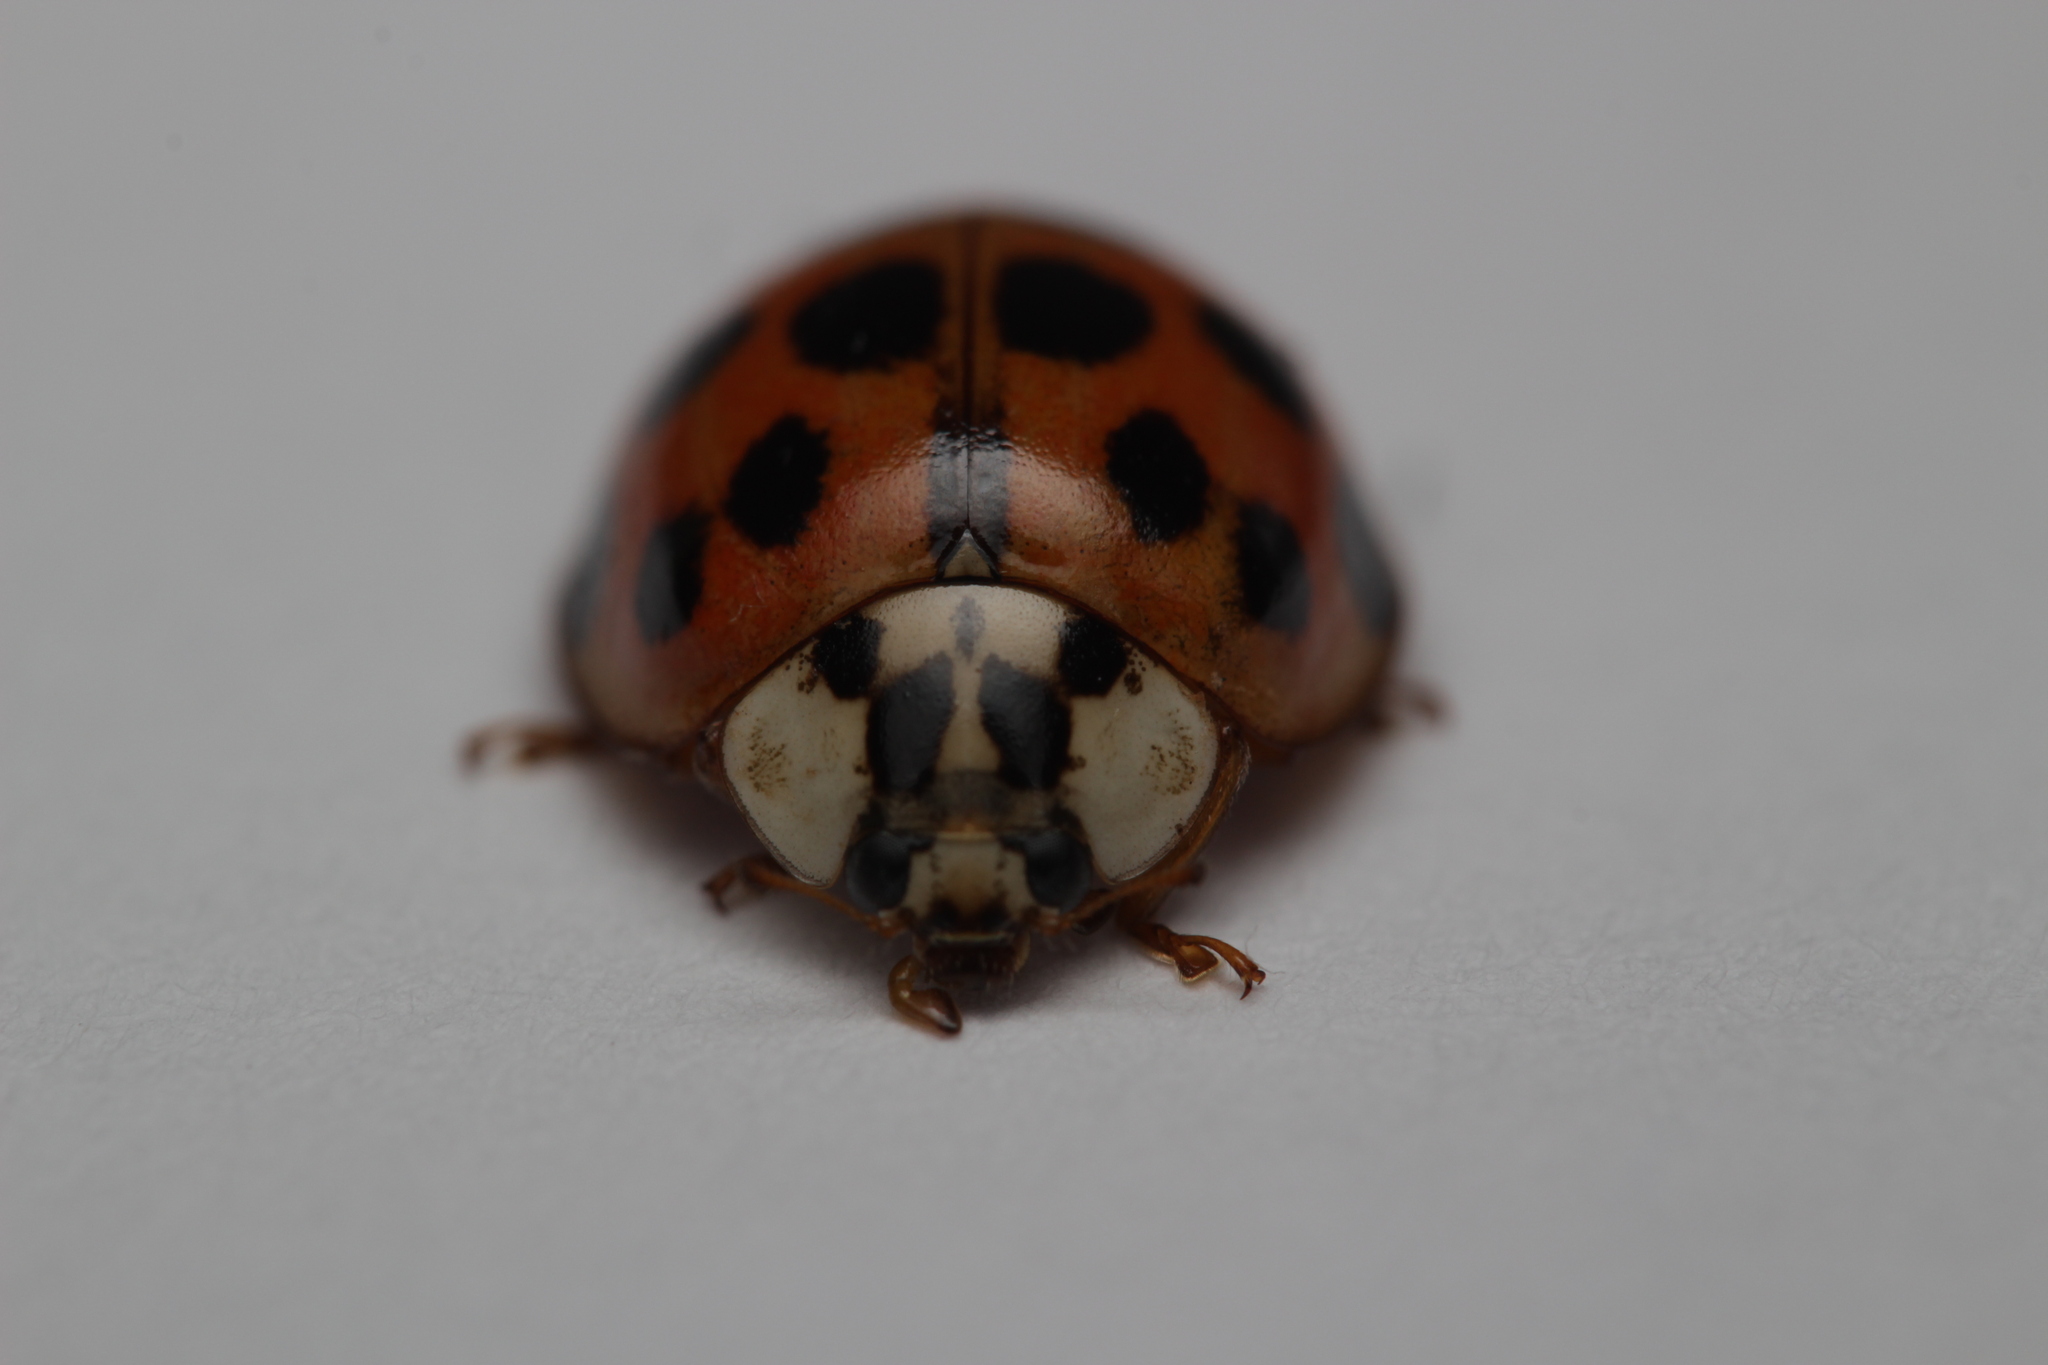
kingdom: Animalia
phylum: Arthropoda
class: Insecta
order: Coleoptera
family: Coccinellidae
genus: Harmonia
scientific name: Harmonia axyridis
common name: Harlequin ladybird
